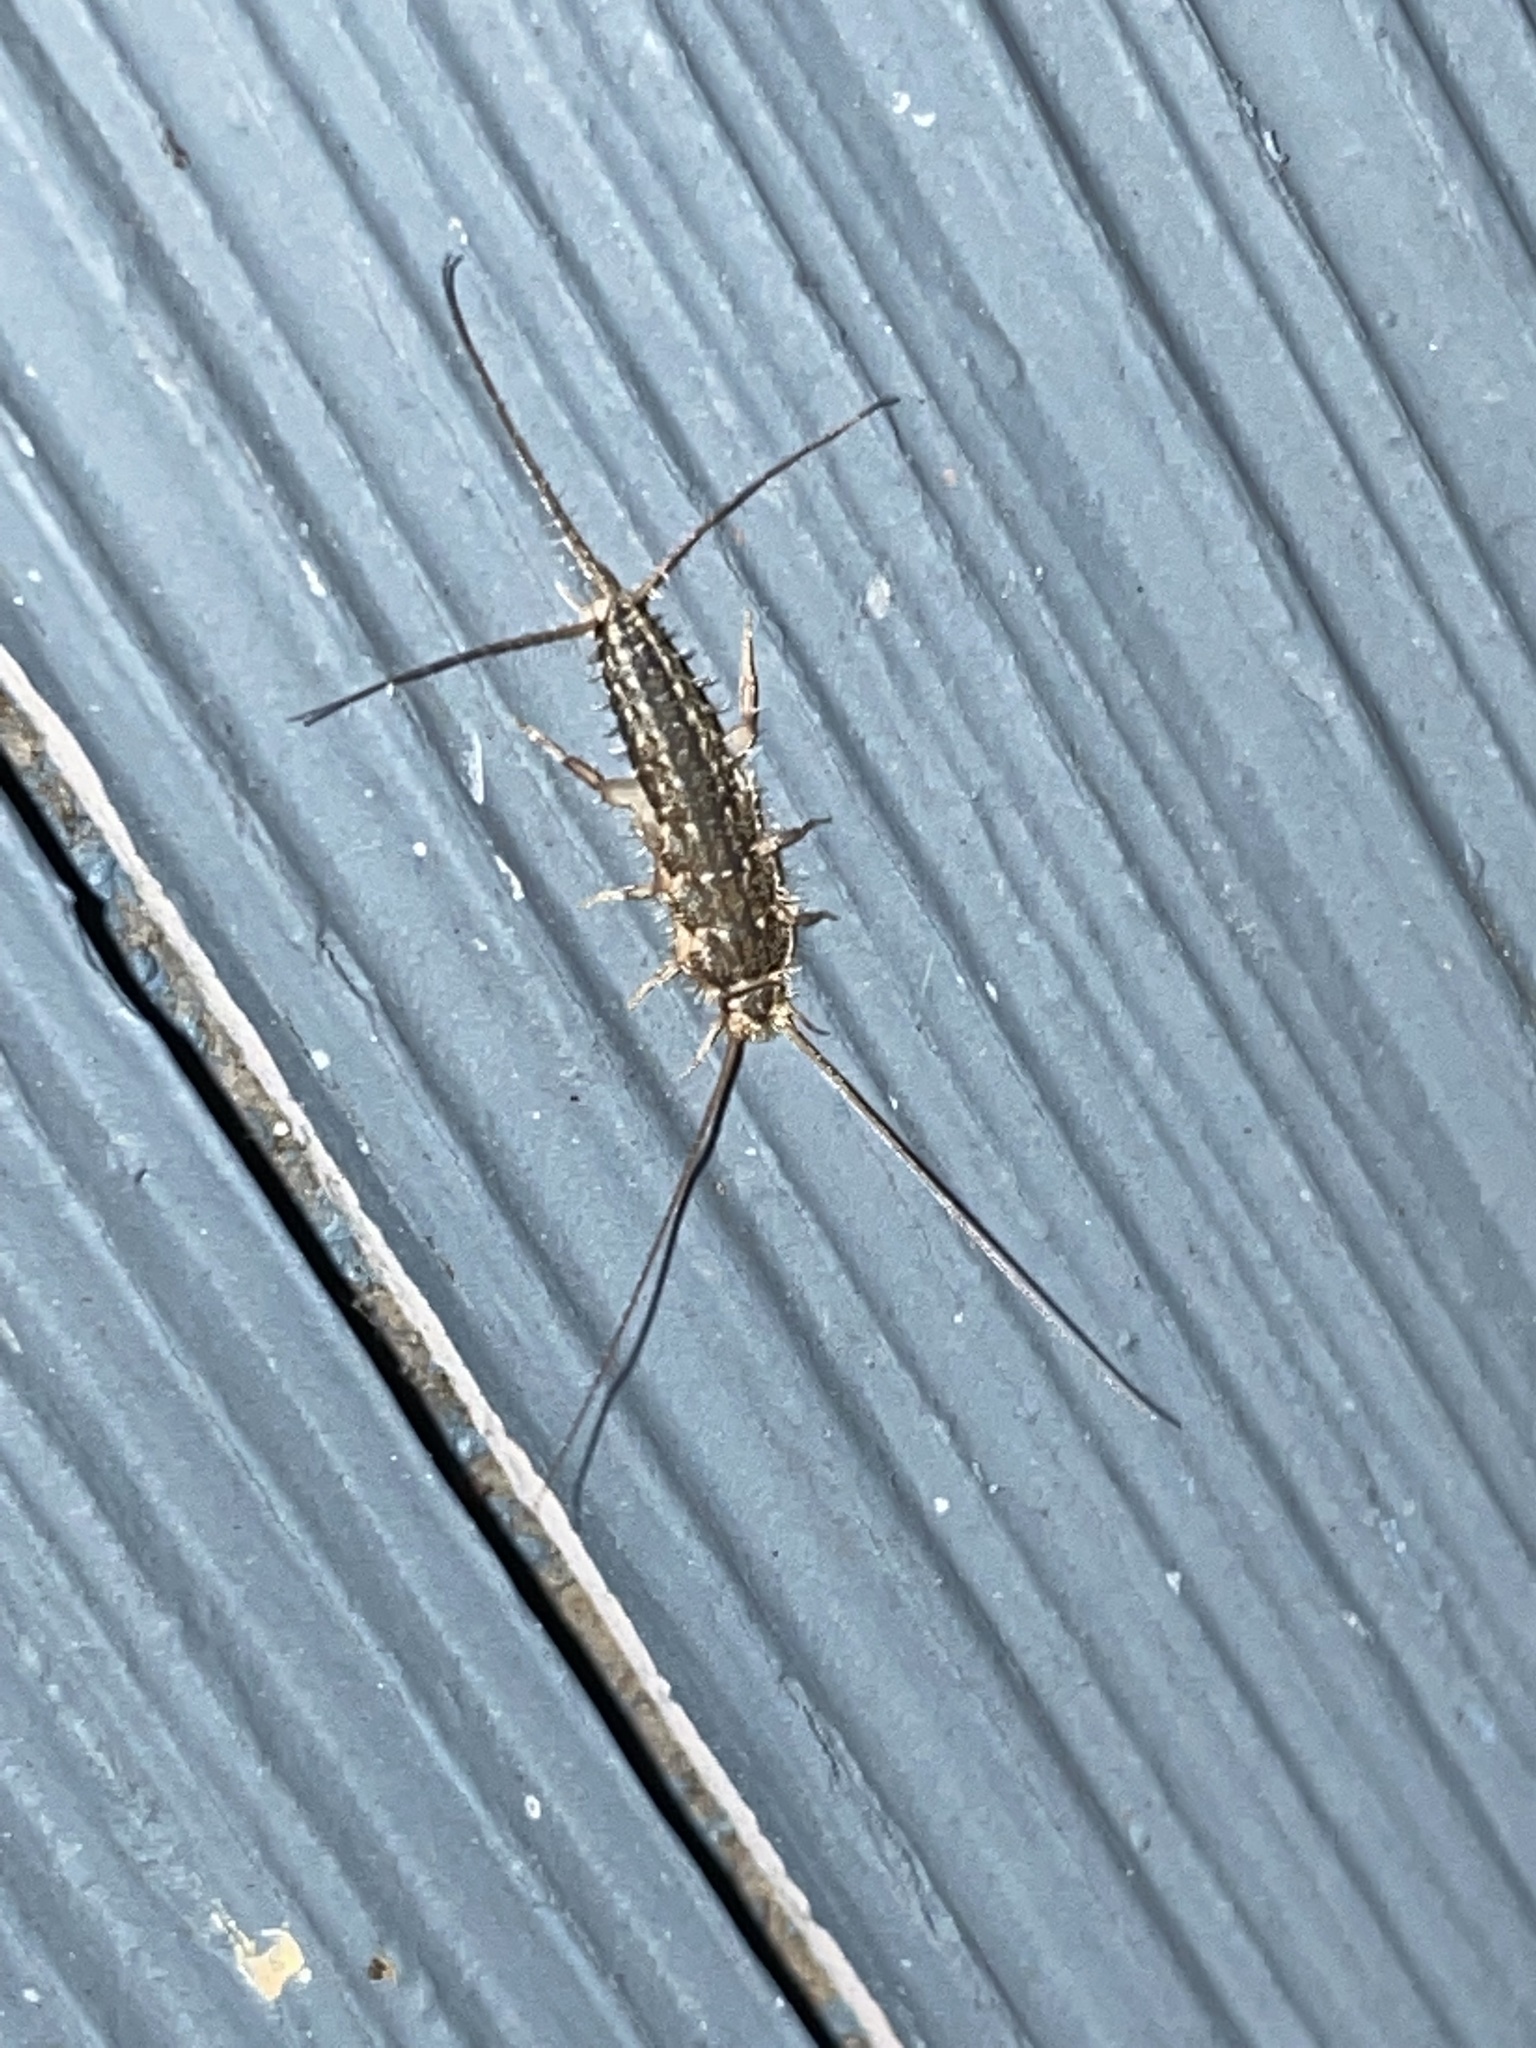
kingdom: Animalia
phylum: Arthropoda
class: Insecta
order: Zygentoma
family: Lepismatidae
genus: Ctenolepisma
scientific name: Ctenolepisma lineata
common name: Four-lined silverfish
